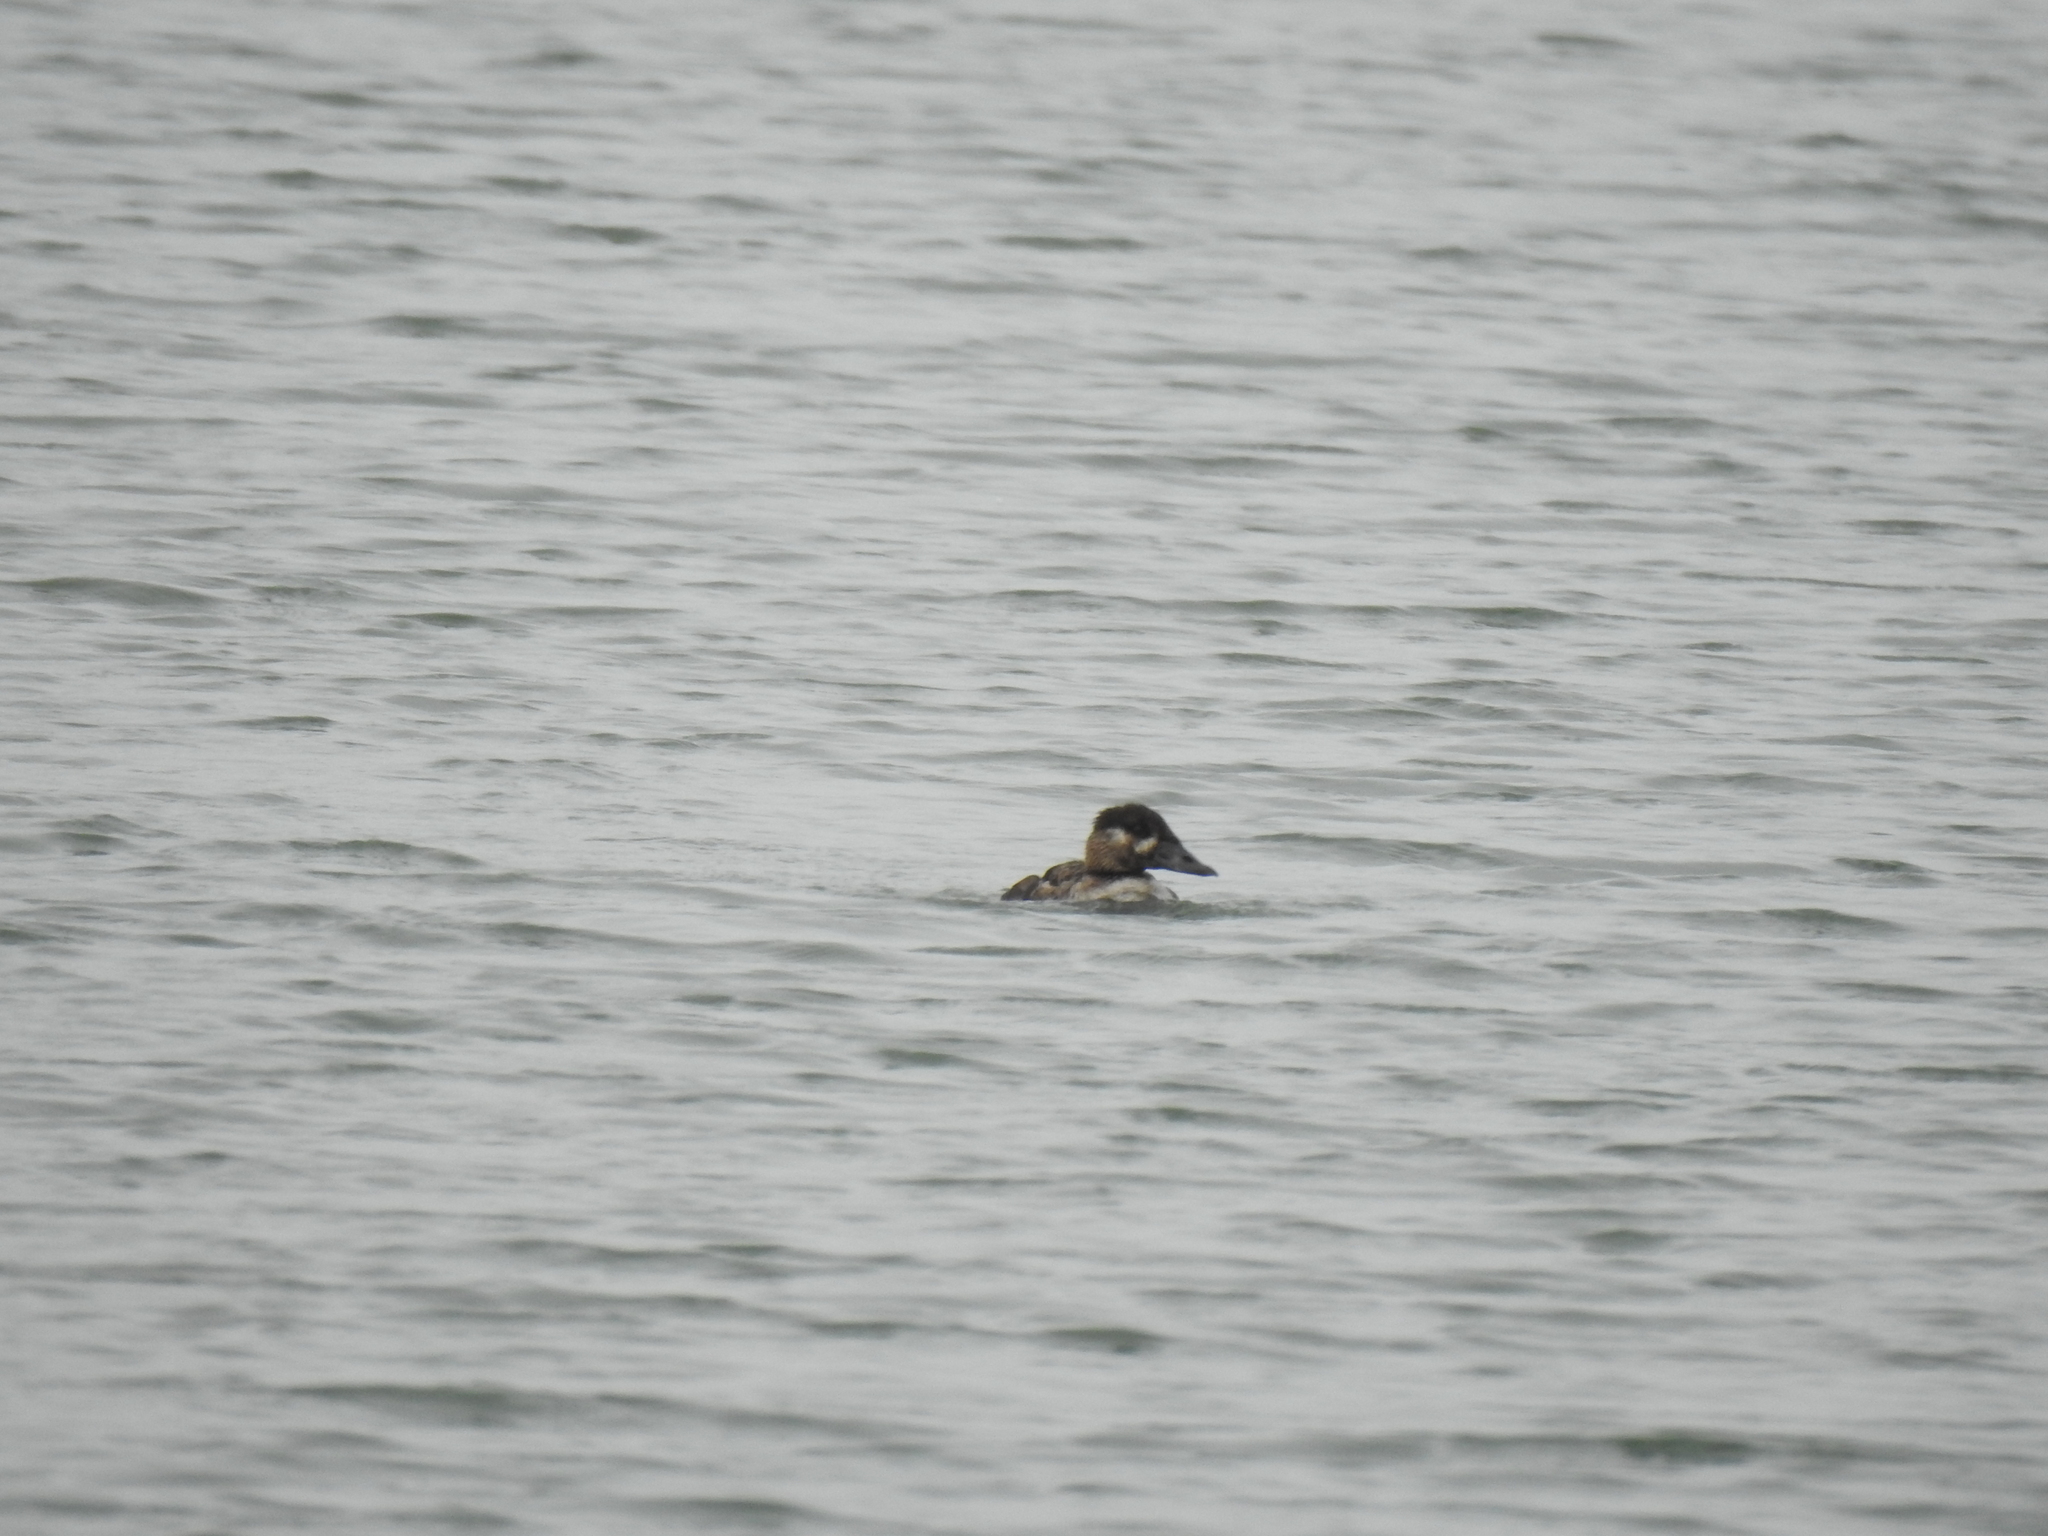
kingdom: Animalia
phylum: Chordata
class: Aves
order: Anseriformes
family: Anatidae
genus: Melanitta
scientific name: Melanitta perspicillata
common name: Surf scoter
